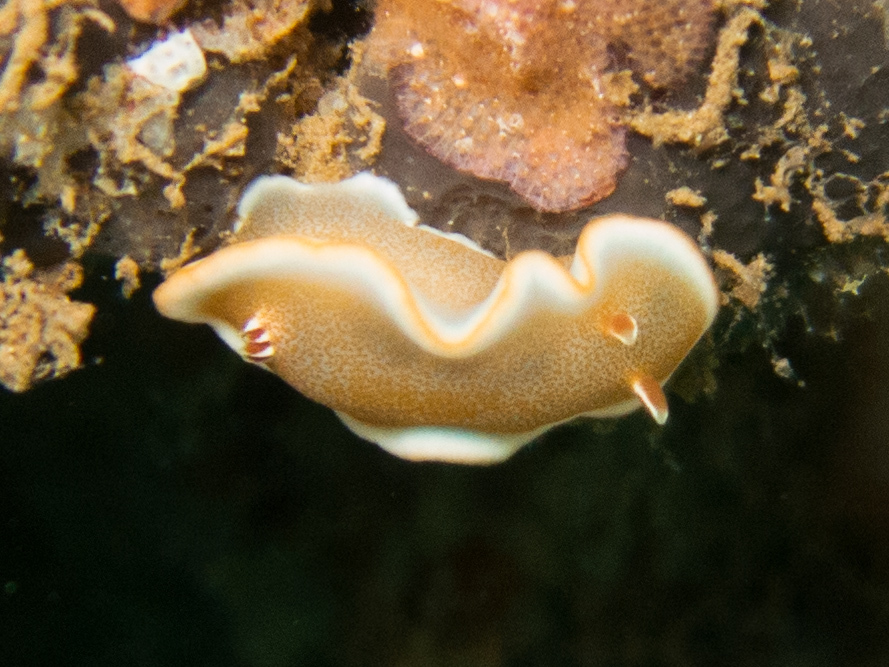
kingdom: Animalia
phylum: Mollusca
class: Gastropoda
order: Nudibranchia
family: Chromodorididae
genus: Glossodoris
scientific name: Glossodoris rufomarginata
